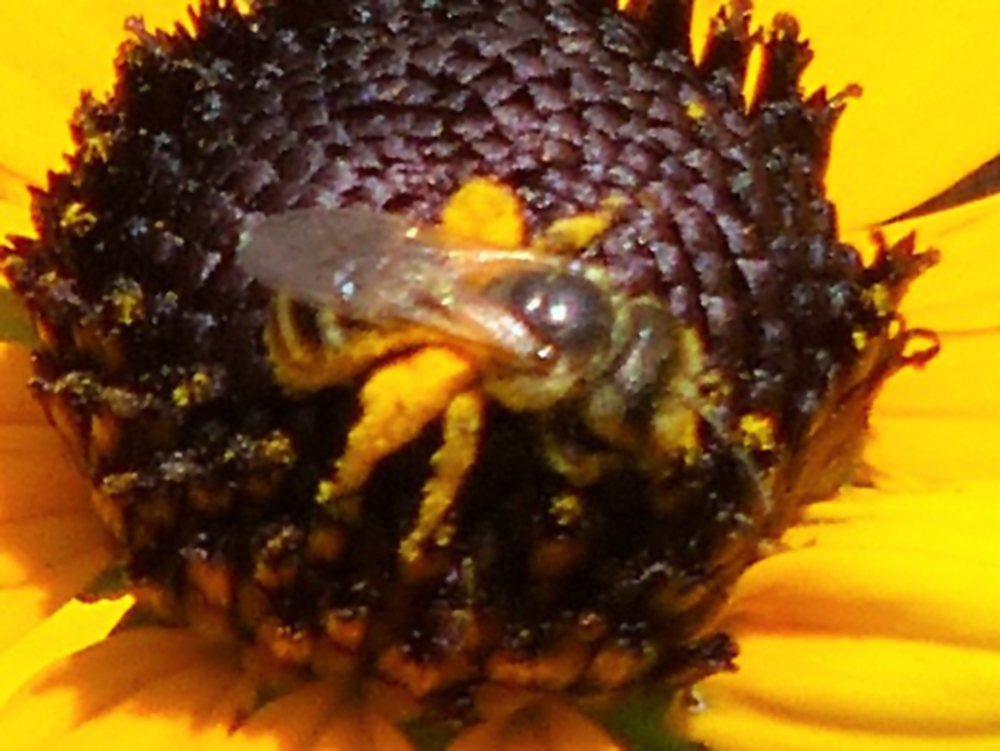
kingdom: Animalia
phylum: Arthropoda
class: Insecta
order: Hymenoptera
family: Halictidae
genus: Halictus
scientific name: Halictus ligatus
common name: Ligated furrow bee
